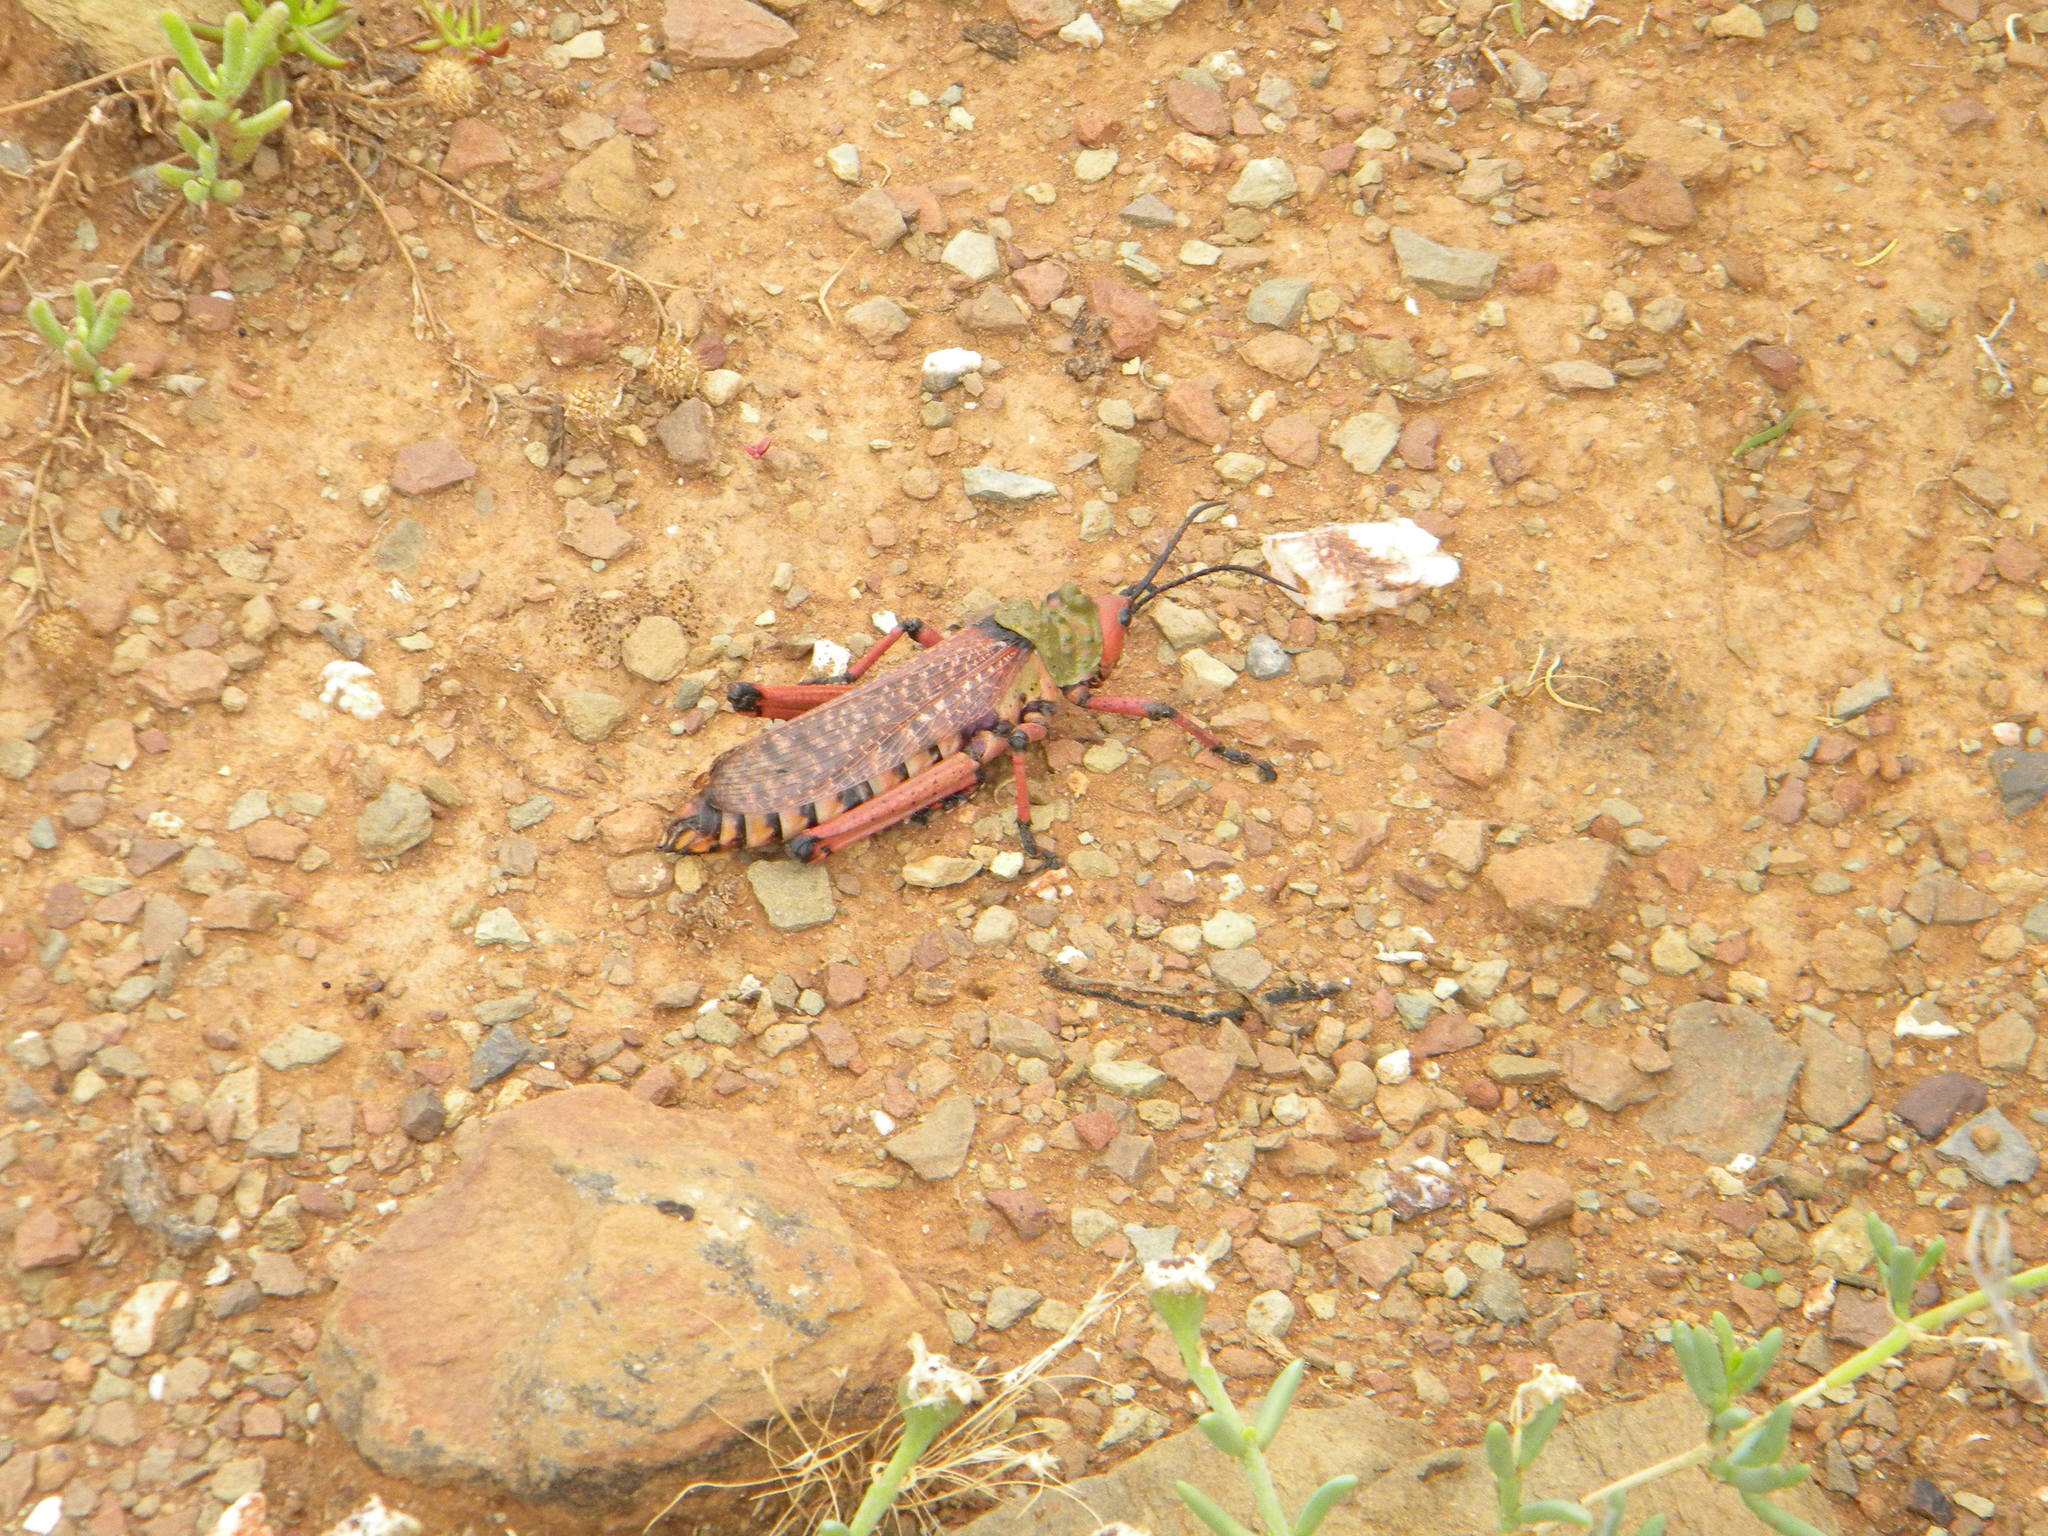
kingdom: Animalia
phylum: Arthropoda
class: Insecta
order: Orthoptera
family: Pyrgomorphidae
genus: Phymateus
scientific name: Phymateus leprosus
